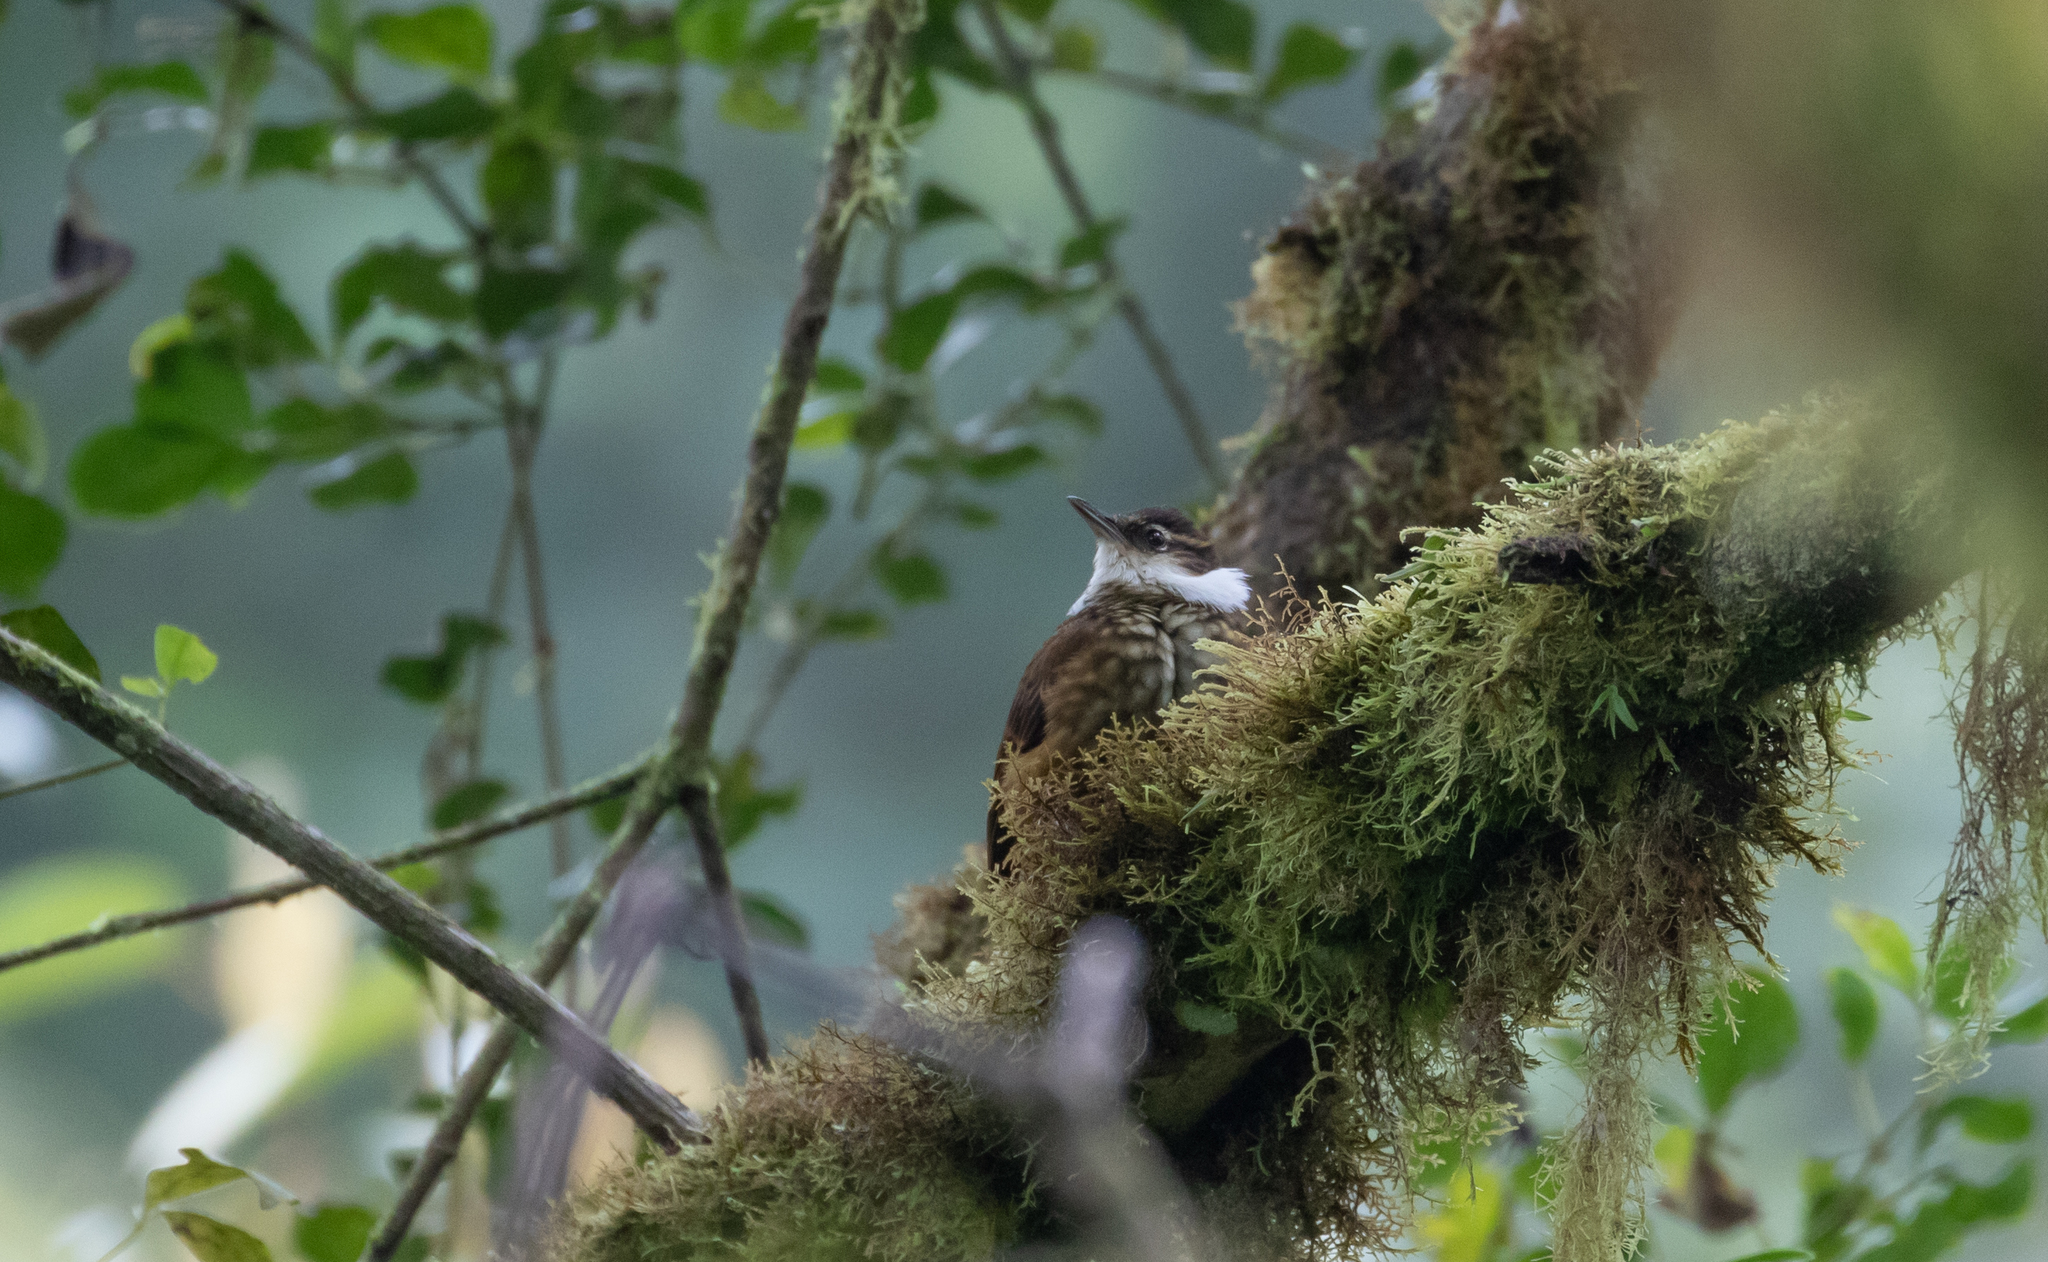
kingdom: Animalia
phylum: Chordata
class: Aves
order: Passeriformes
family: Furnariidae
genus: Pseudocolaptes
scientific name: Pseudocolaptes boissonneautii
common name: Streaked tuftedcheek
